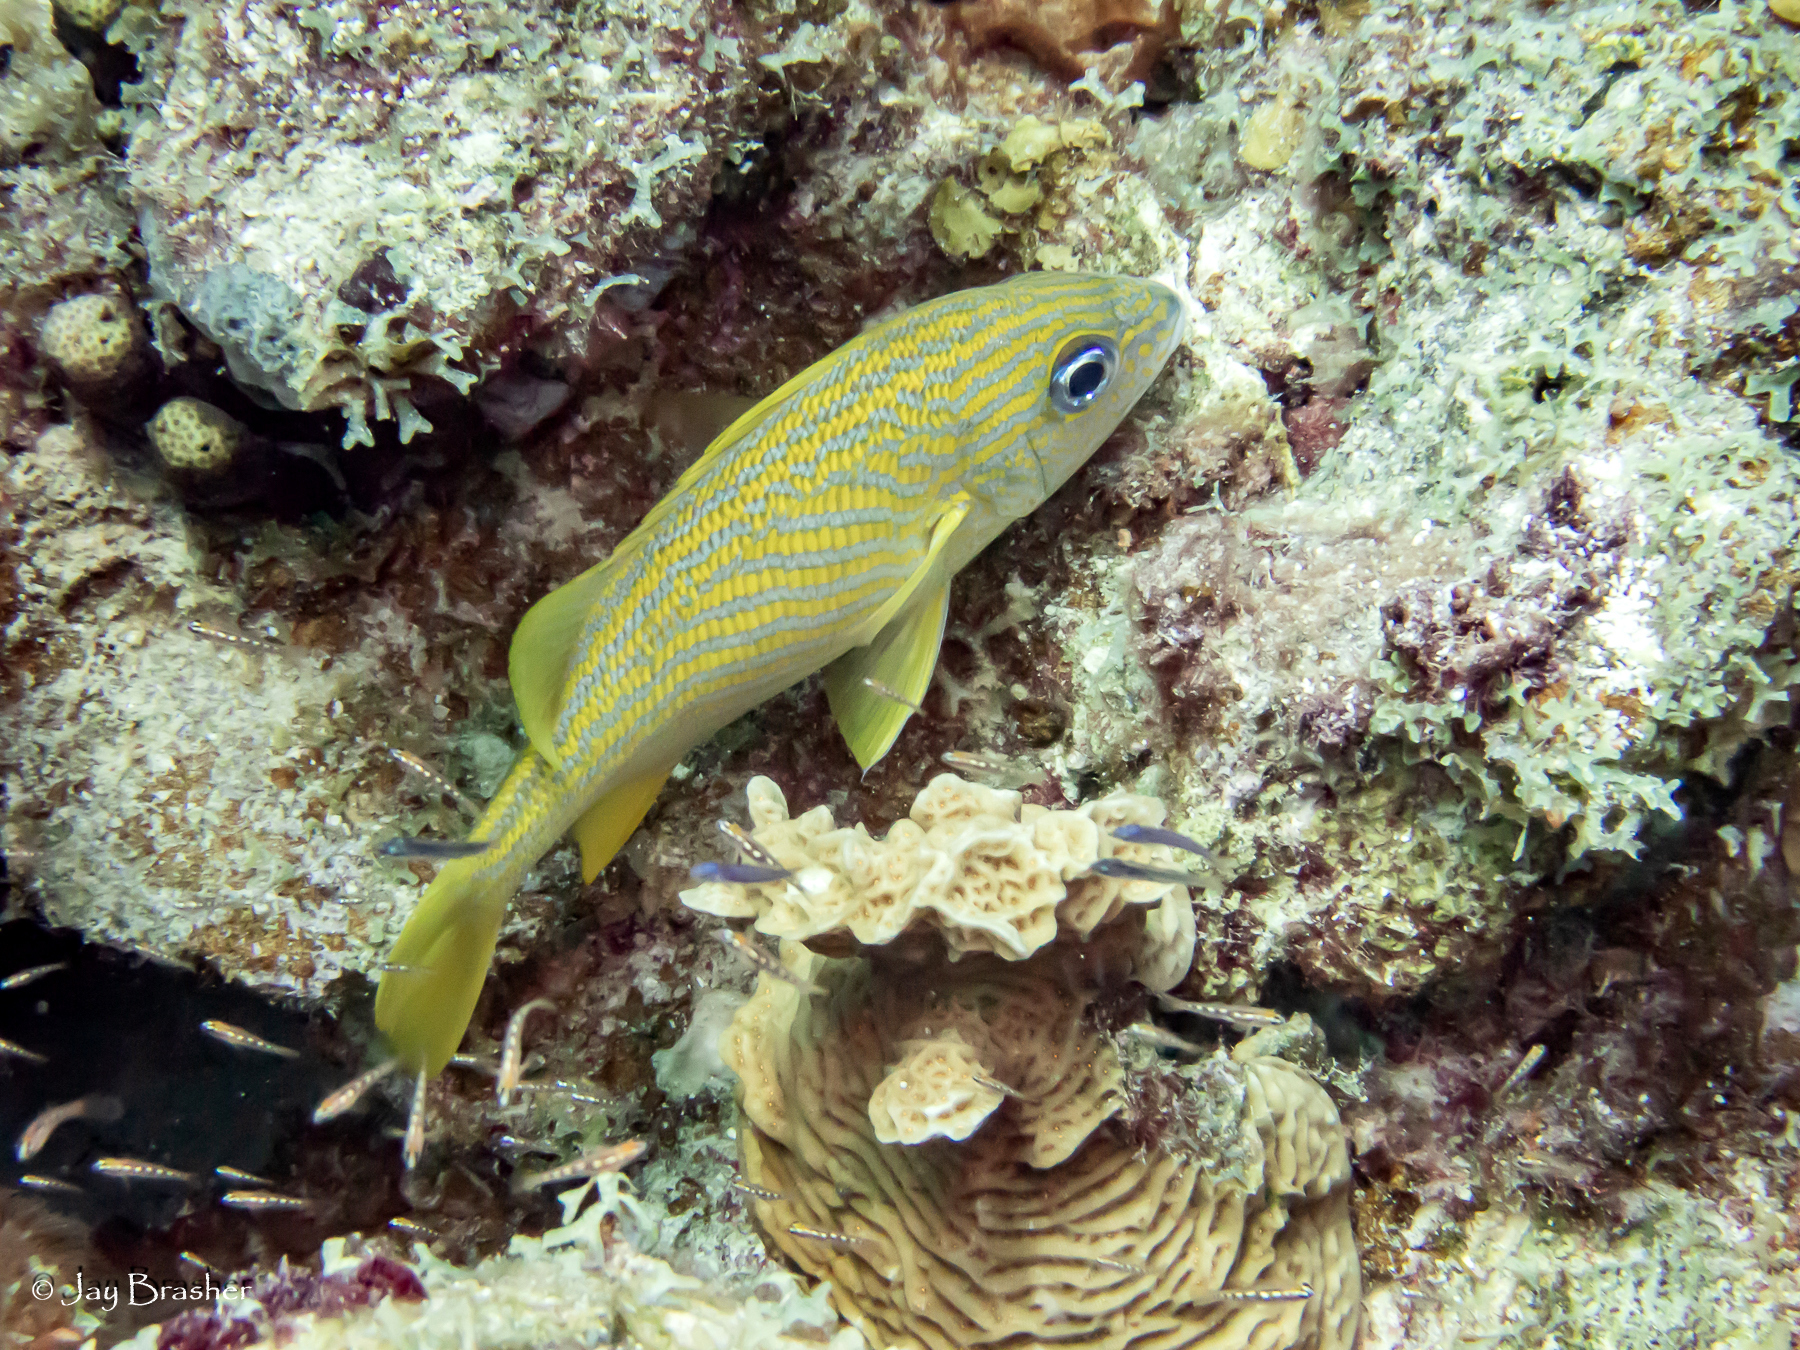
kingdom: Animalia
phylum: Chordata
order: Perciformes
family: Haemulidae
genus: Haemulon
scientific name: Haemulon flavolineatum
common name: French grunt
